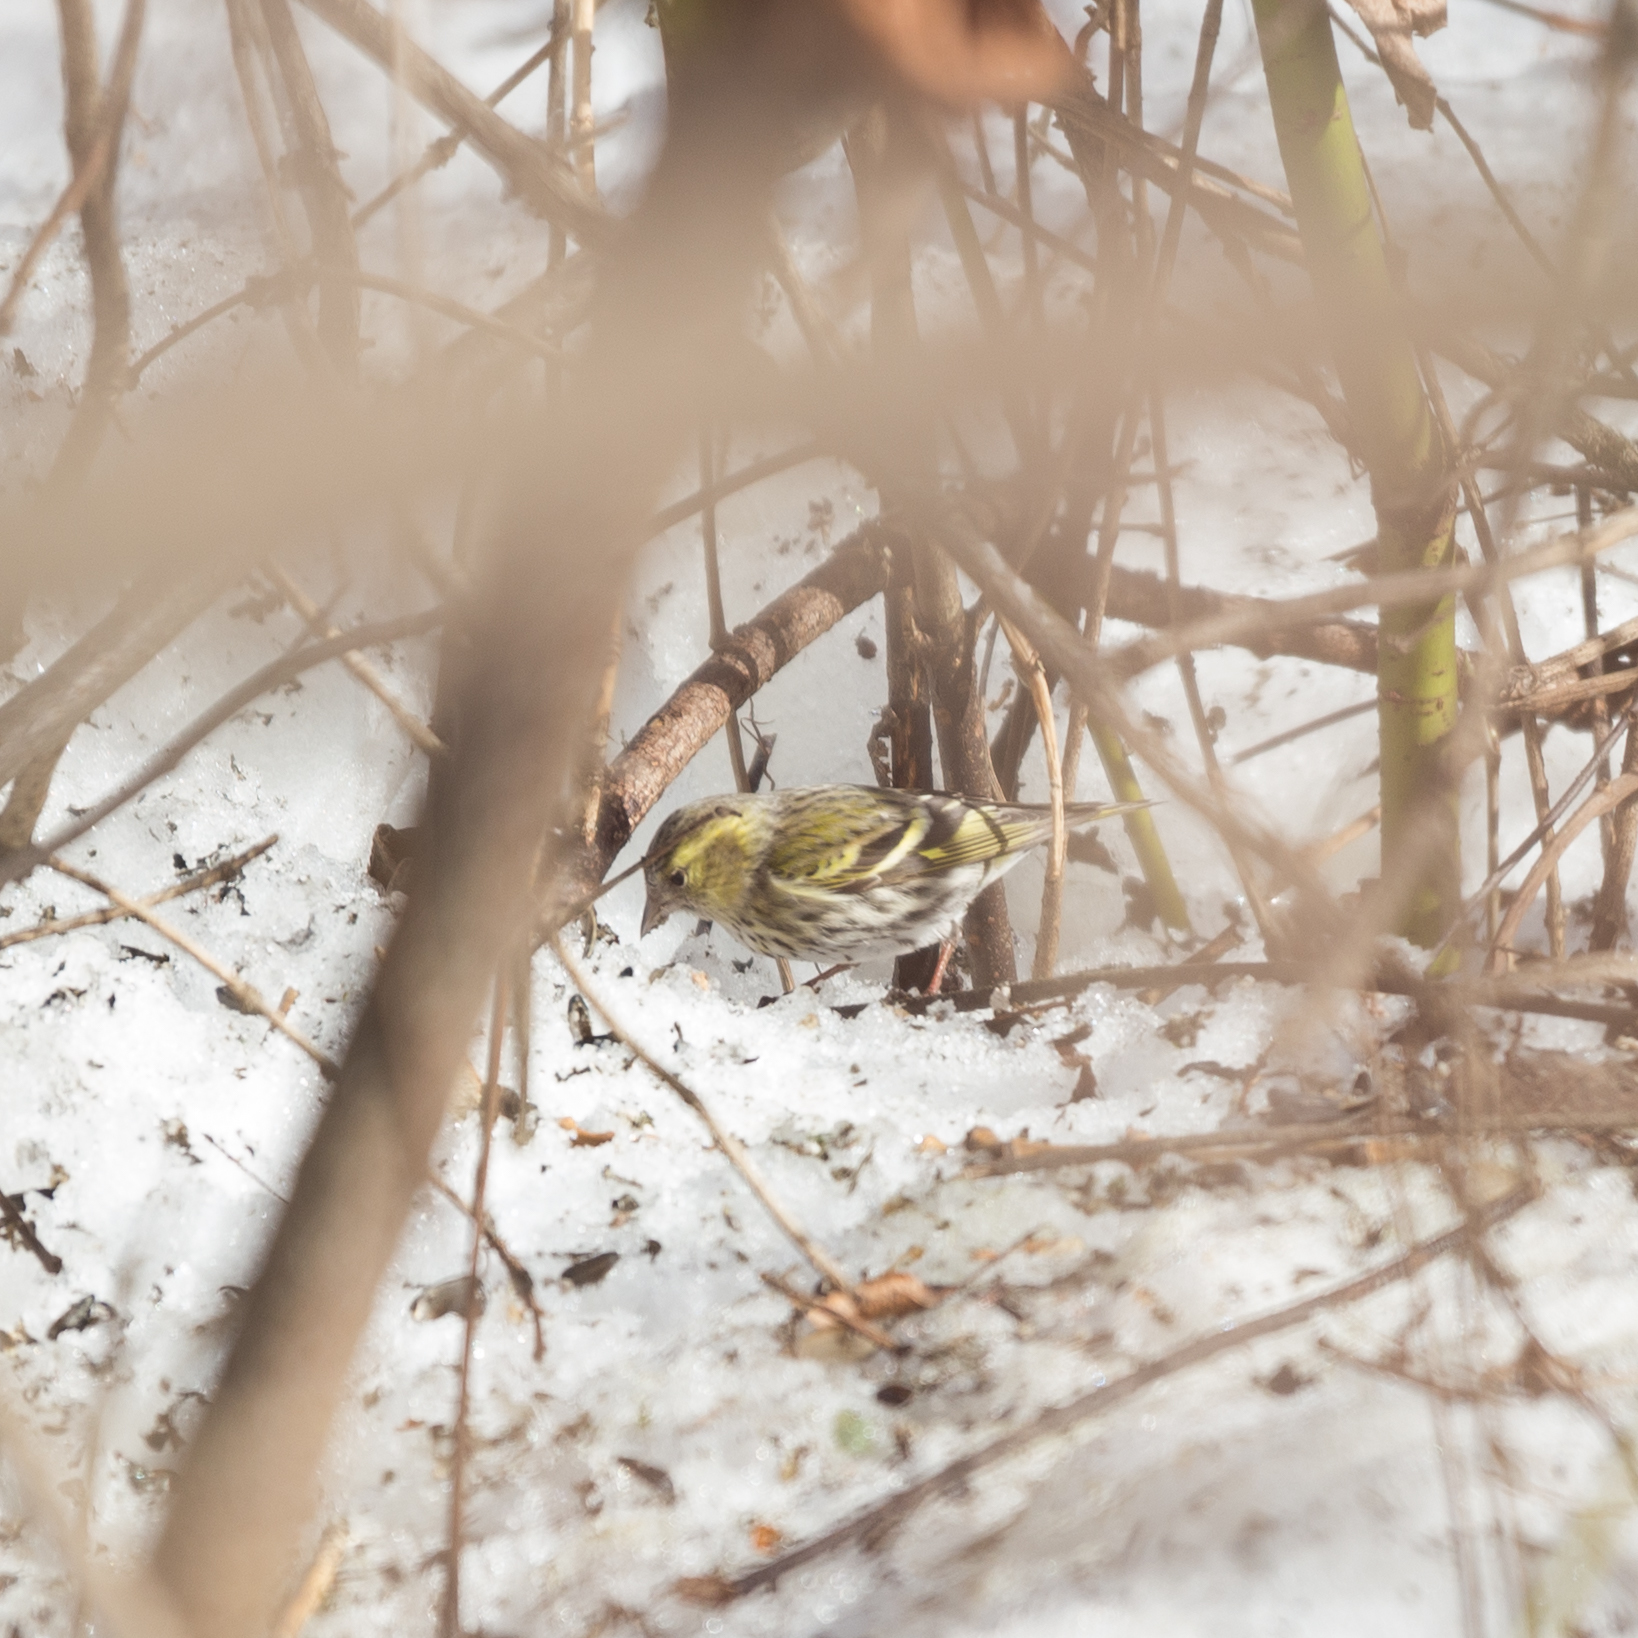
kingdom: Animalia
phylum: Chordata
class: Aves
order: Passeriformes
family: Fringillidae
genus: Spinus
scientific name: Spinus spinus
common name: Eurasian siskin
